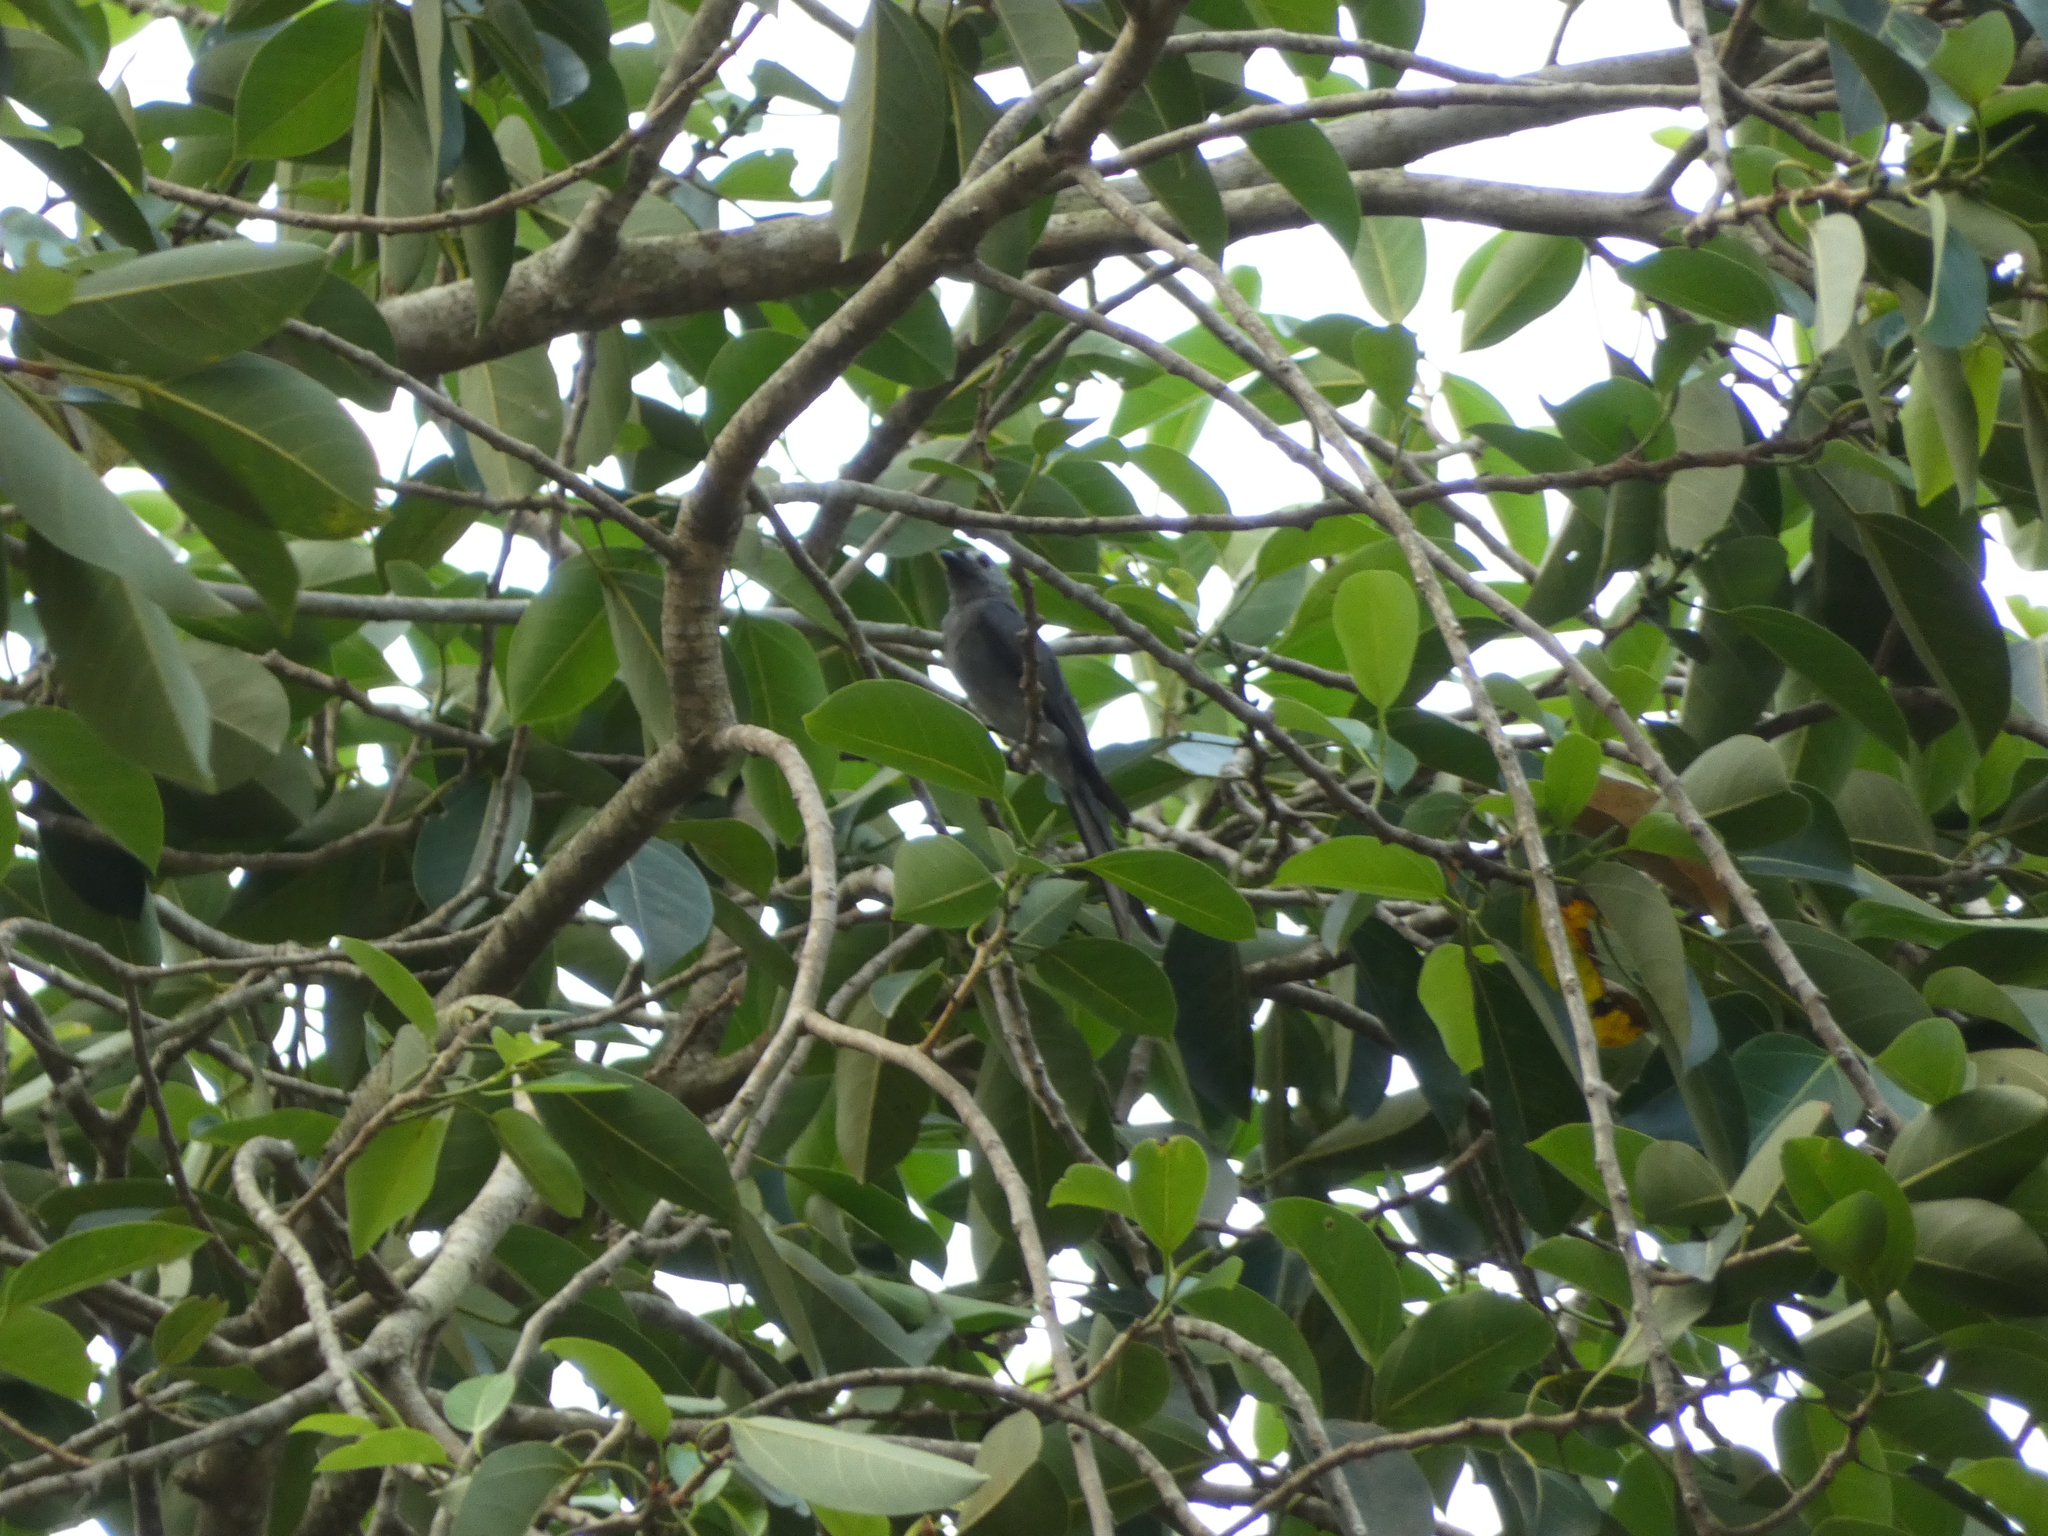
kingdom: Animalia
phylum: Chordata
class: Aves
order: Passeriformes
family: Dicruridae
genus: Dicrurus
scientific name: Dicrurus leucophaeus
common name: Ashy drongo
